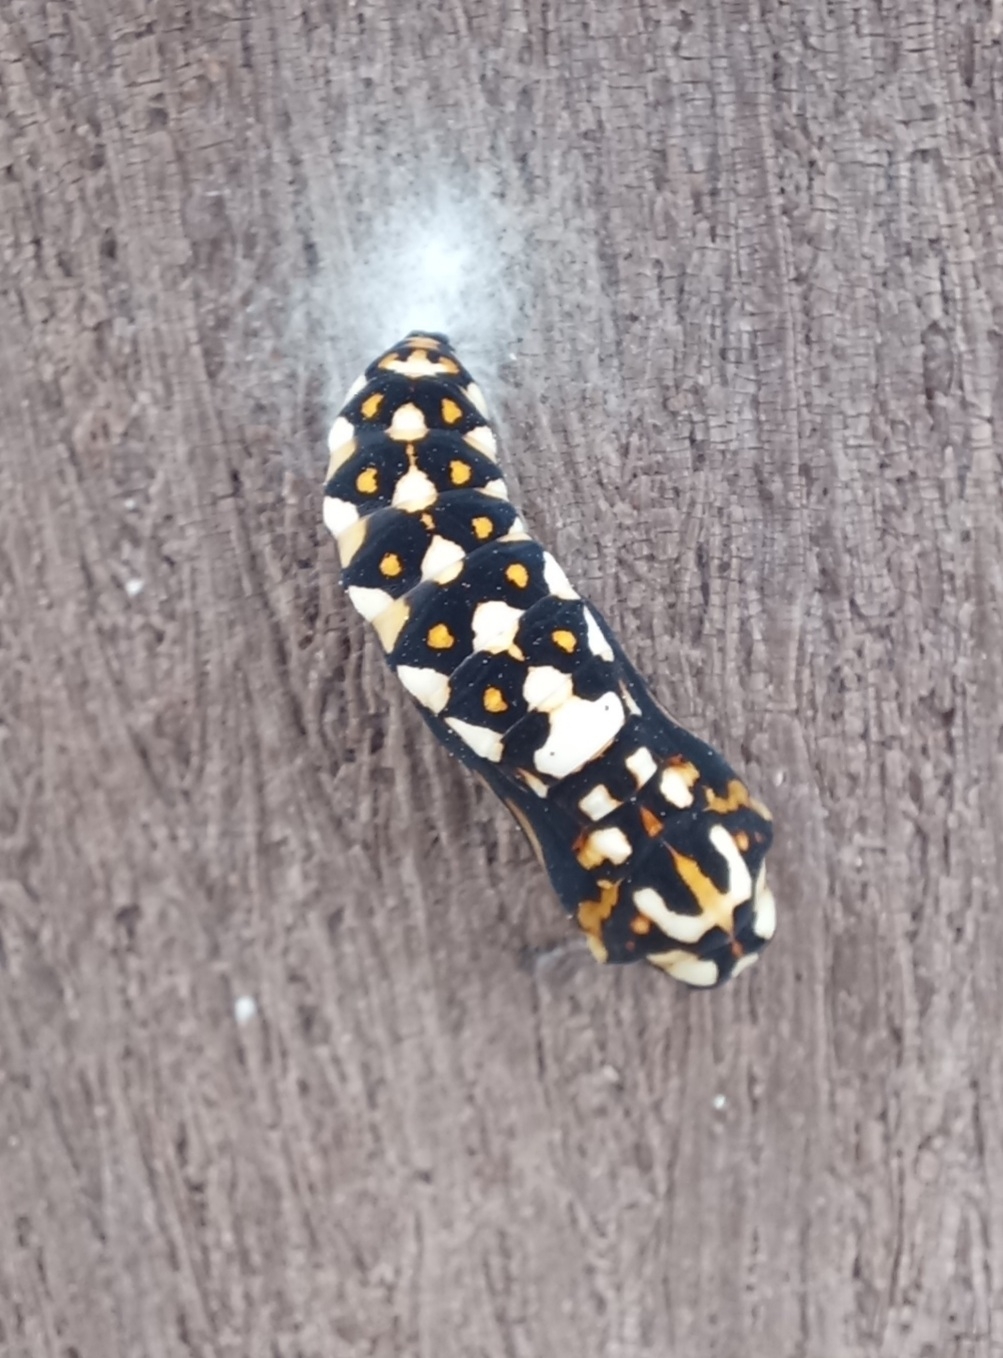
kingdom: Animalia
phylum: Arthropoda
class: Insecta
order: Lepidoptera
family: Nymphalidae
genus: Acraea
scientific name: Acraea horta
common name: Garden acraea
